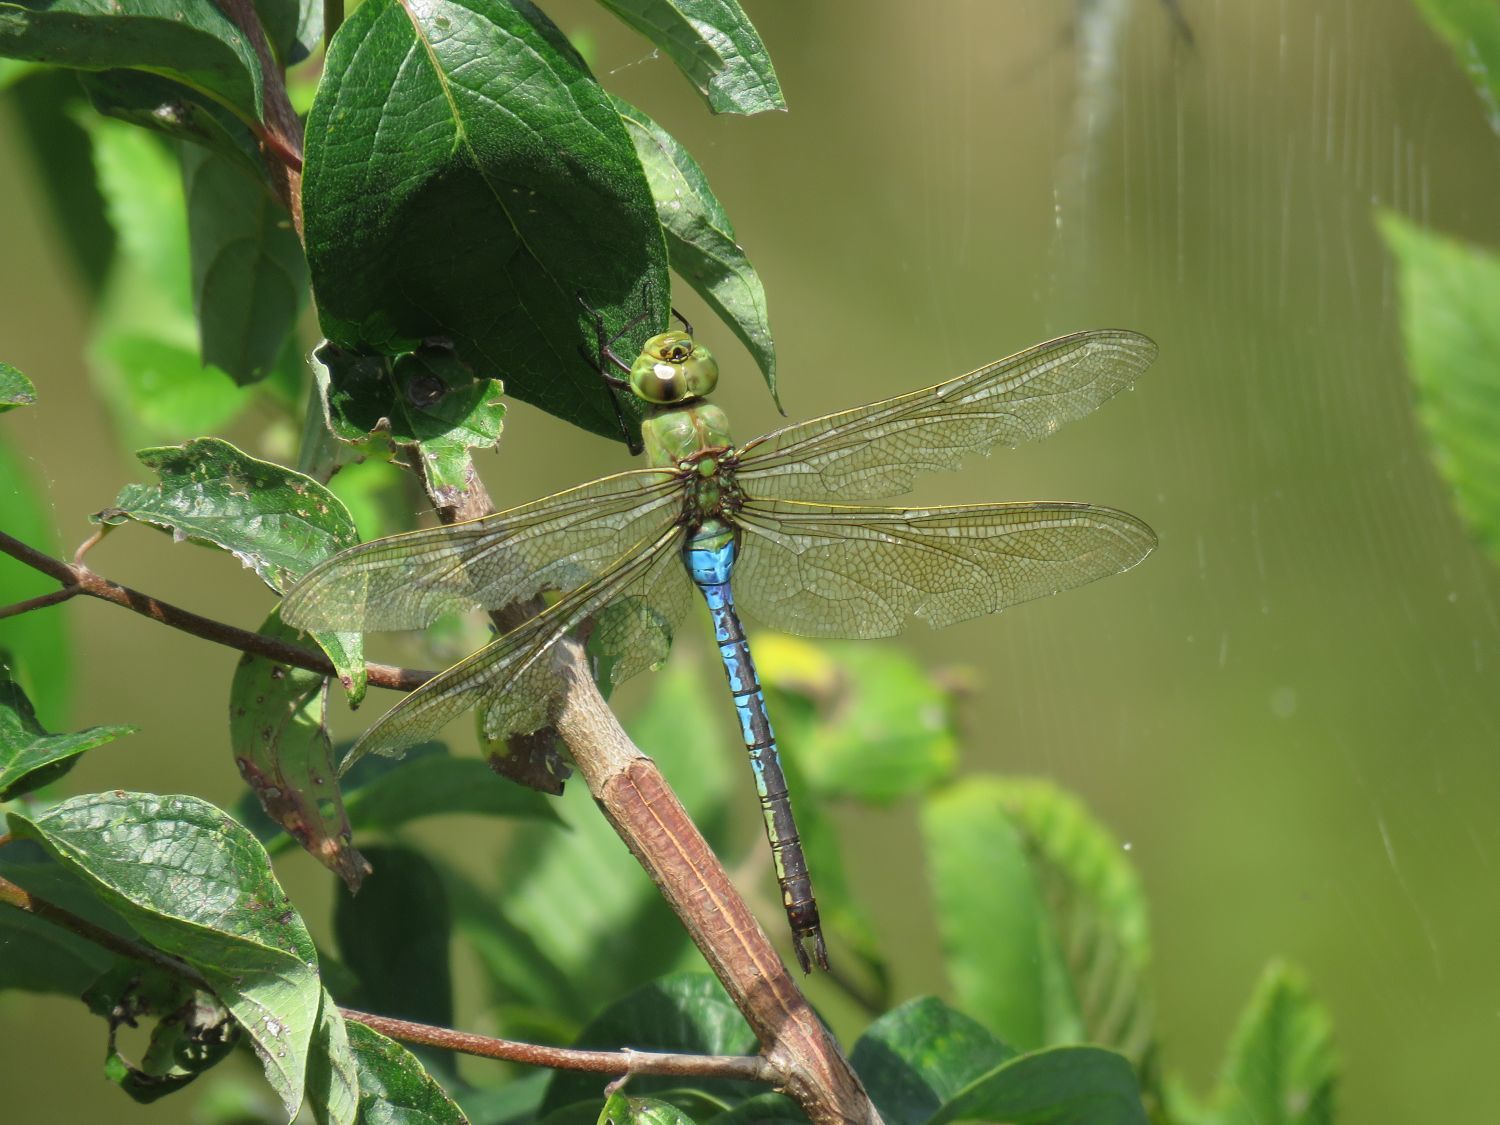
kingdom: Animalia
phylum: Arthropoda
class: Insecta
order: Odonata
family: Aeshnidae
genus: Anax
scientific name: Anax junius
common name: Common green darner
